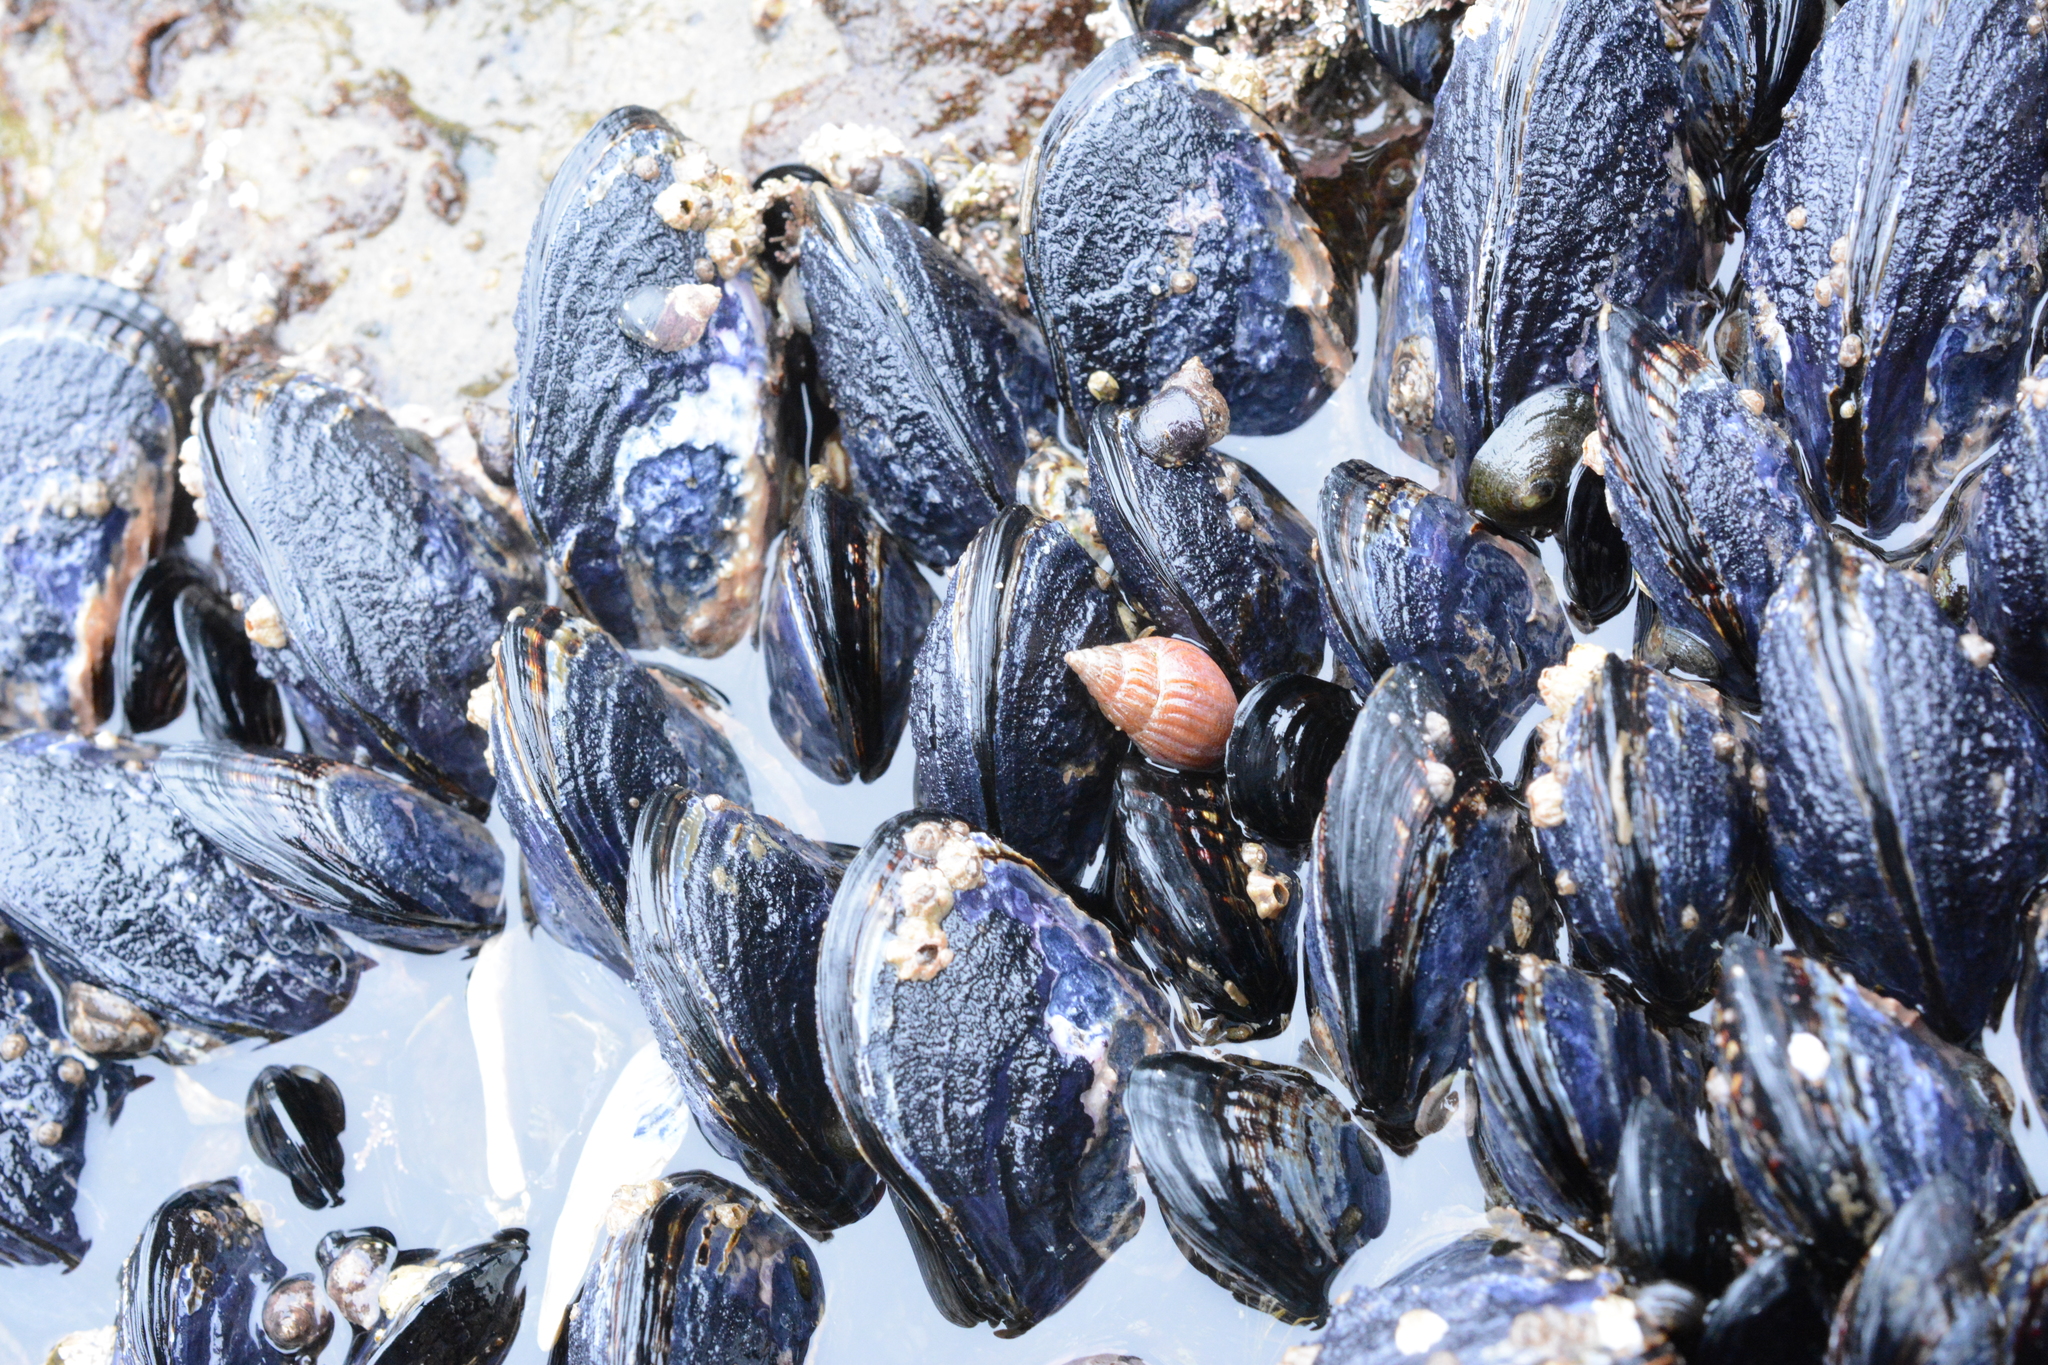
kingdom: Animalia
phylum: Mollusca
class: Gastropoda
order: Neogastropoda
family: Columbellidae
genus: Amphissa
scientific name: Amphissa columbiana
